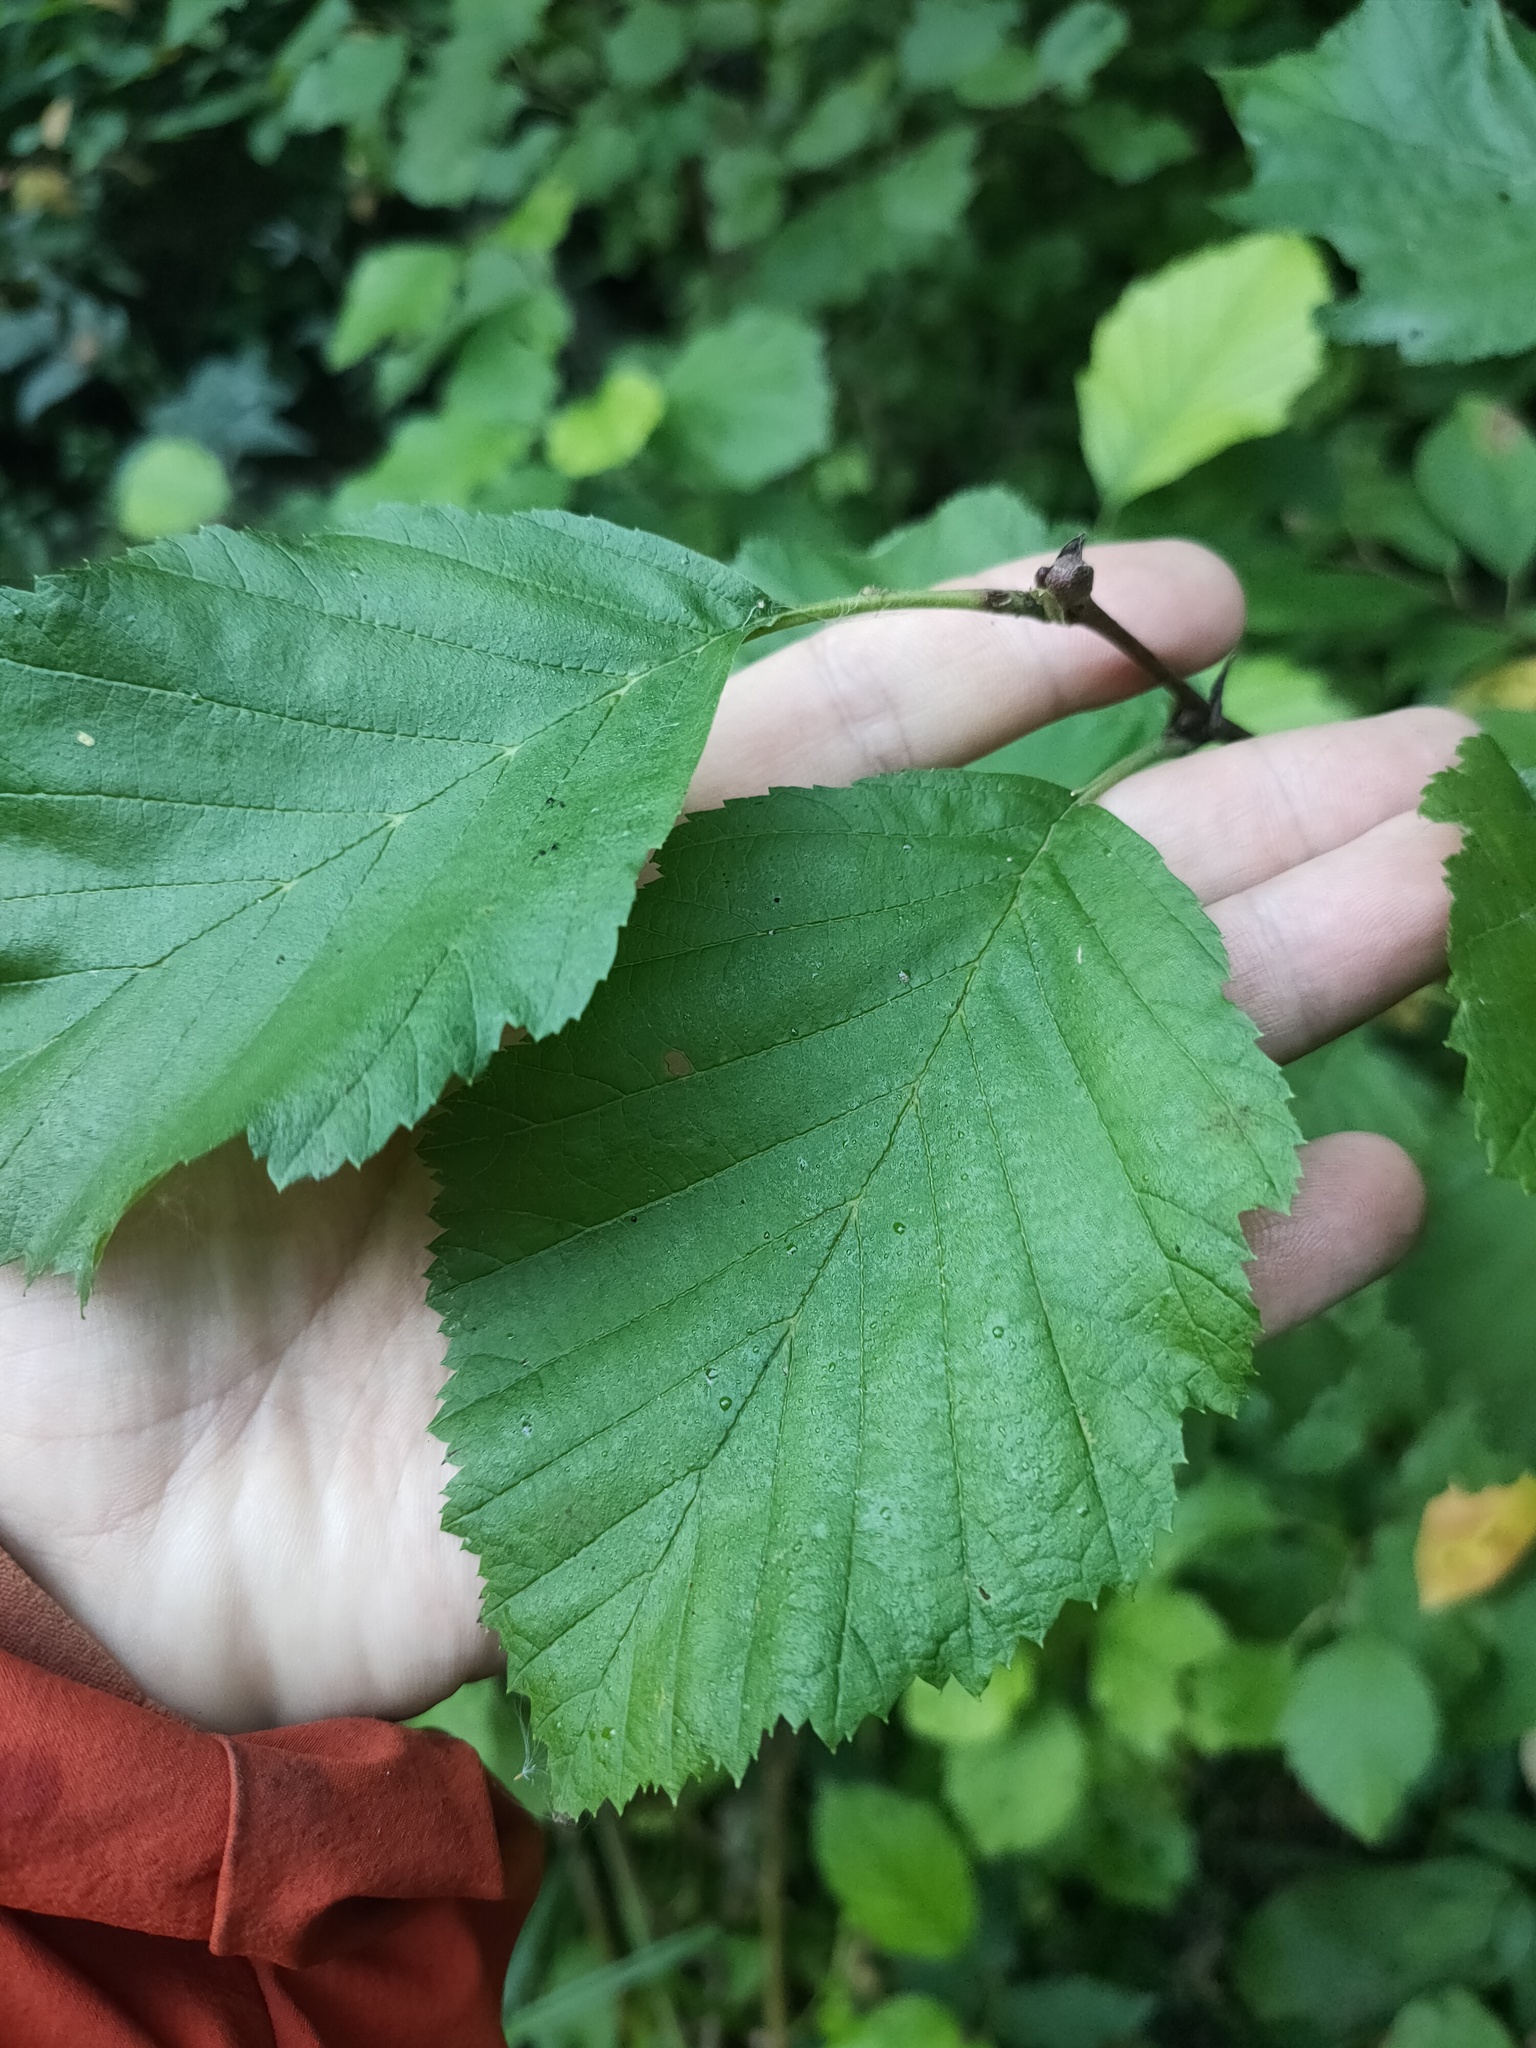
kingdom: Plantae
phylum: Tracheophyta
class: Magnoliopsida
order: Fagales
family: Betulaceae
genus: Alnus
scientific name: Alnus incana
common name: Grey alder
